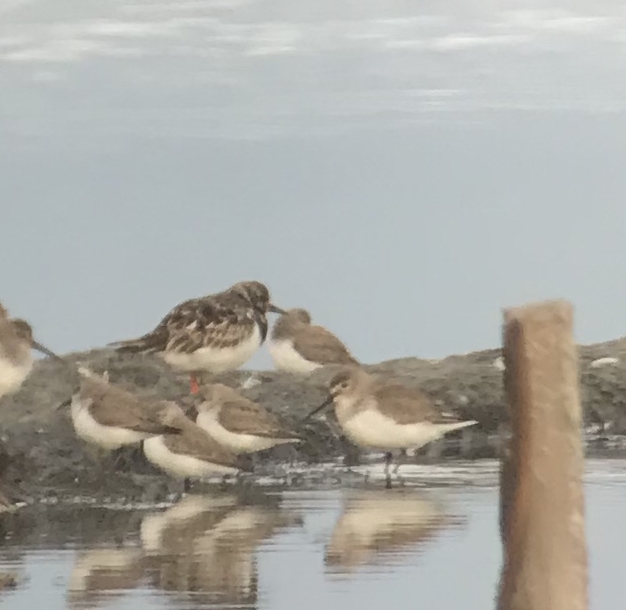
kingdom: Animalia
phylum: Chordata
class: Aves
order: Charadriiformes
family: Scolopacidae
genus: Arenaria
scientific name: Arenaria interpres
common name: Ruddy turnstone
